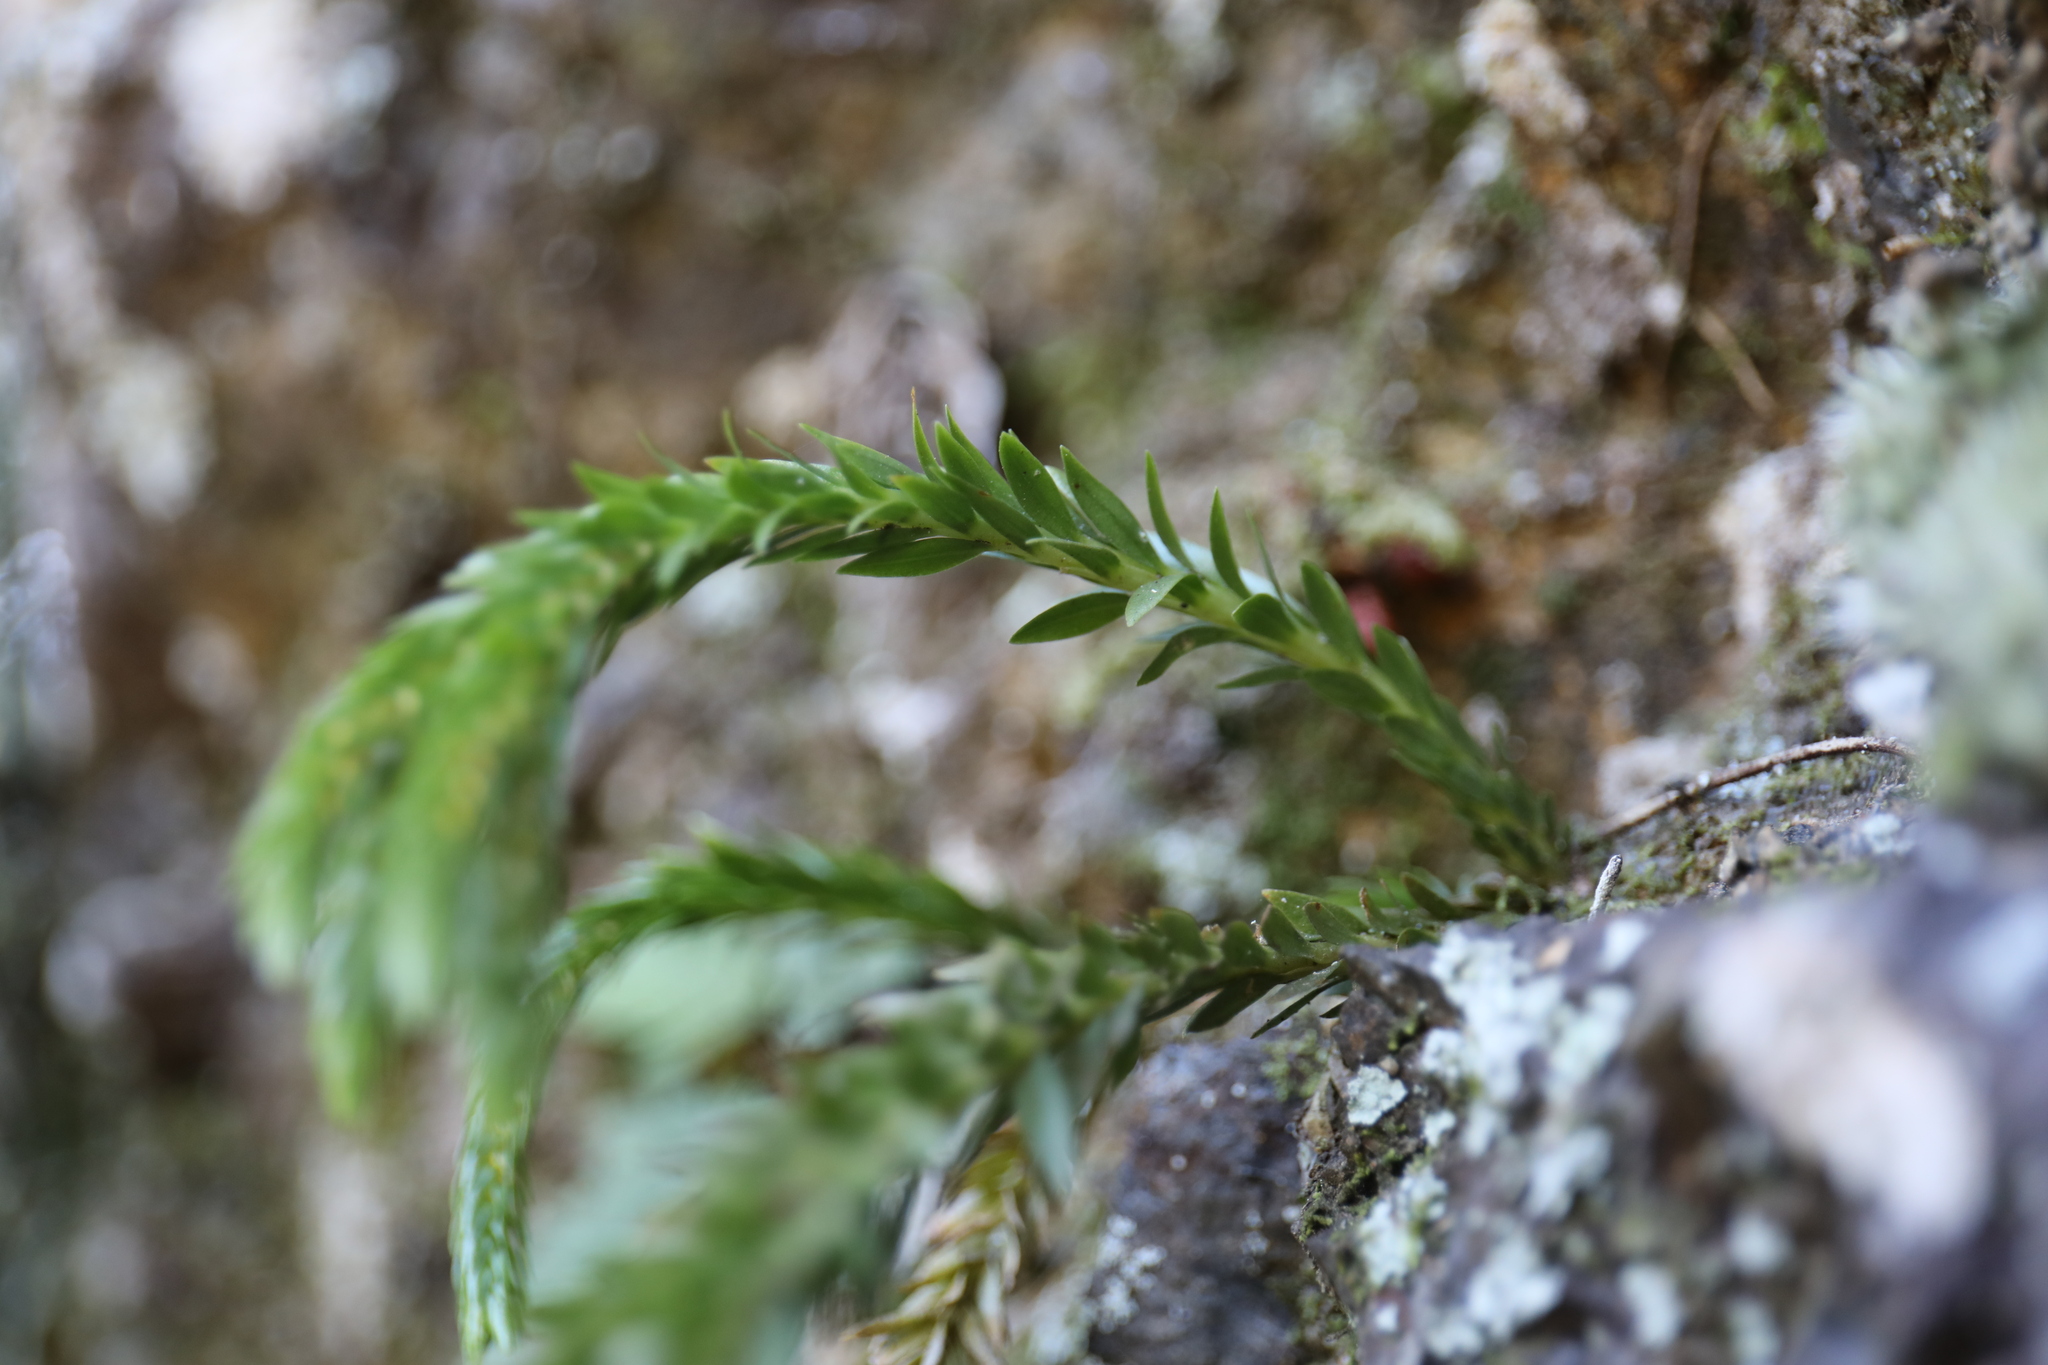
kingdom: Plantae
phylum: Tracheophyta
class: Lycopodiopsida
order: Lycopodiales
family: Lycopodiaceae
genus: Phlegmariurus
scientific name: Phlegmariurus fordii
